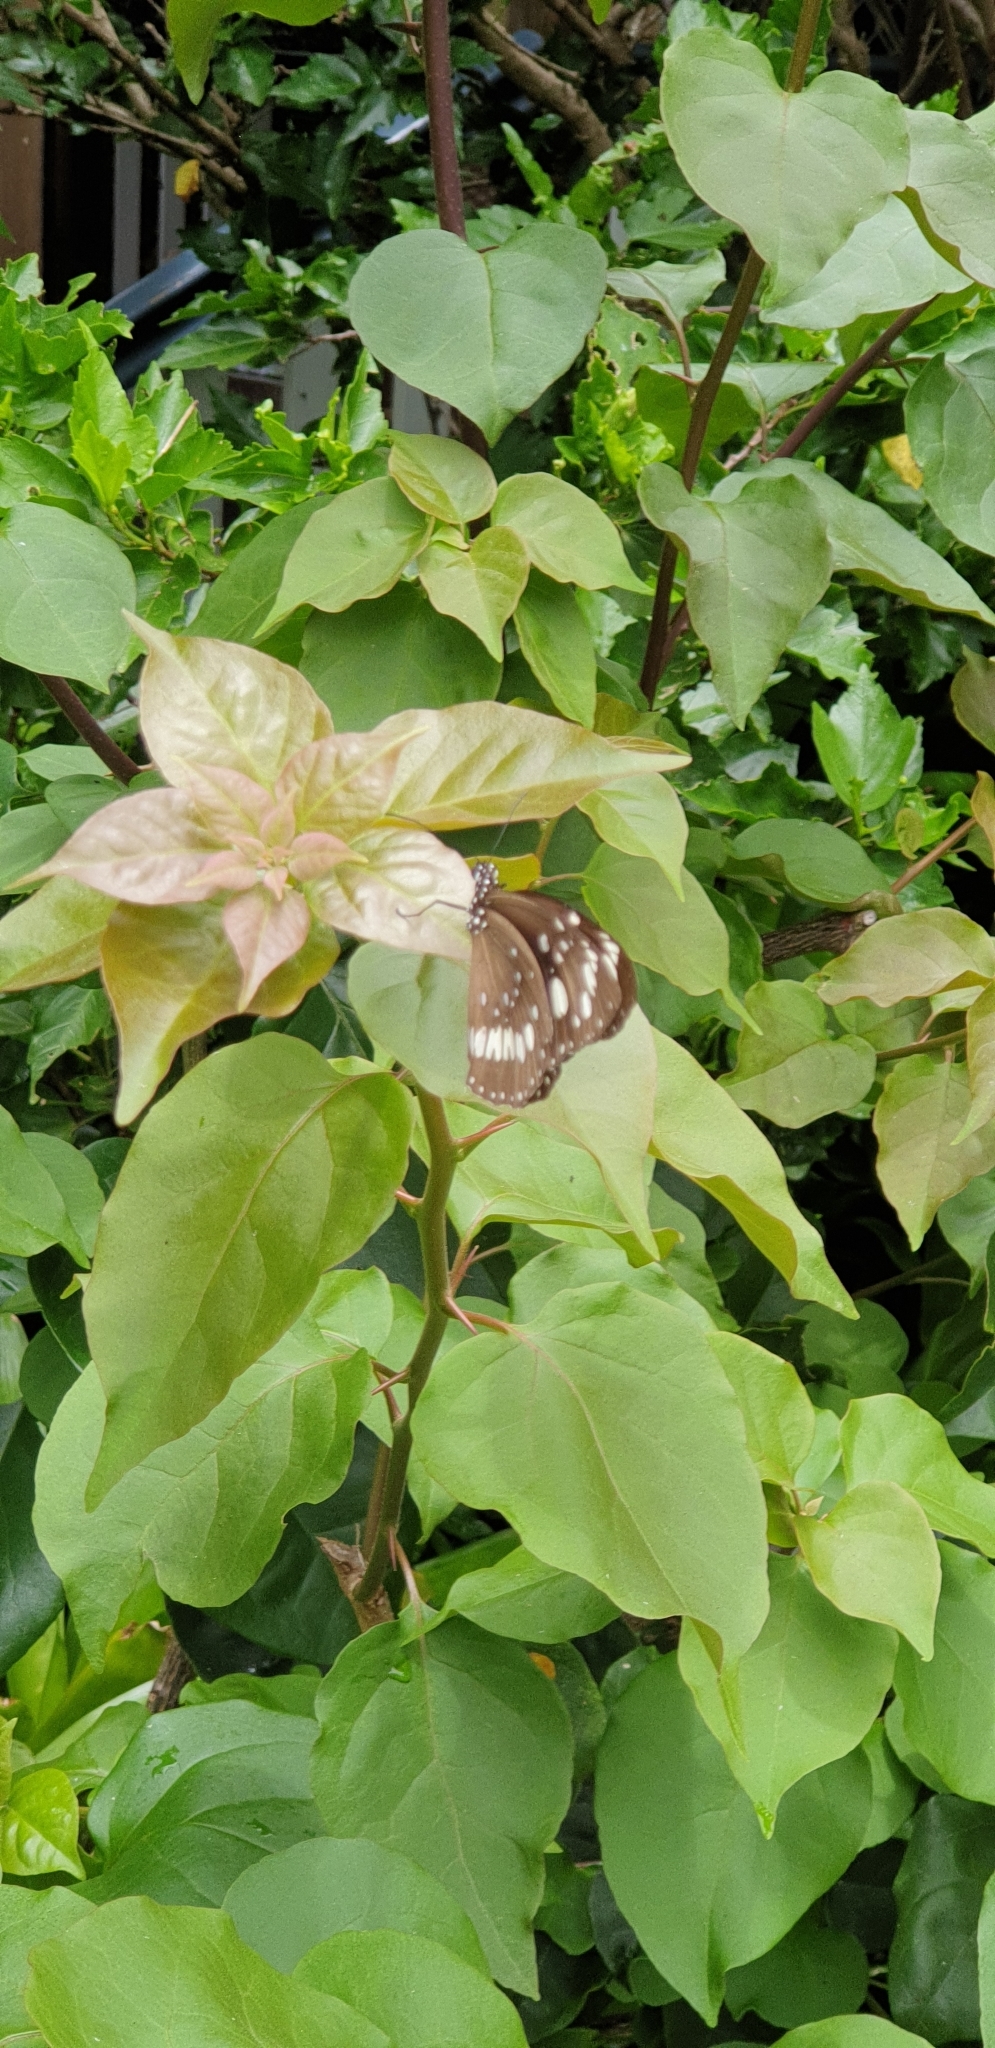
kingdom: Animalia
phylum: Arthropoda
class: Insecta
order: Lepidoptera
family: Nymphalidae
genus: Euploea
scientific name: Euploea core
